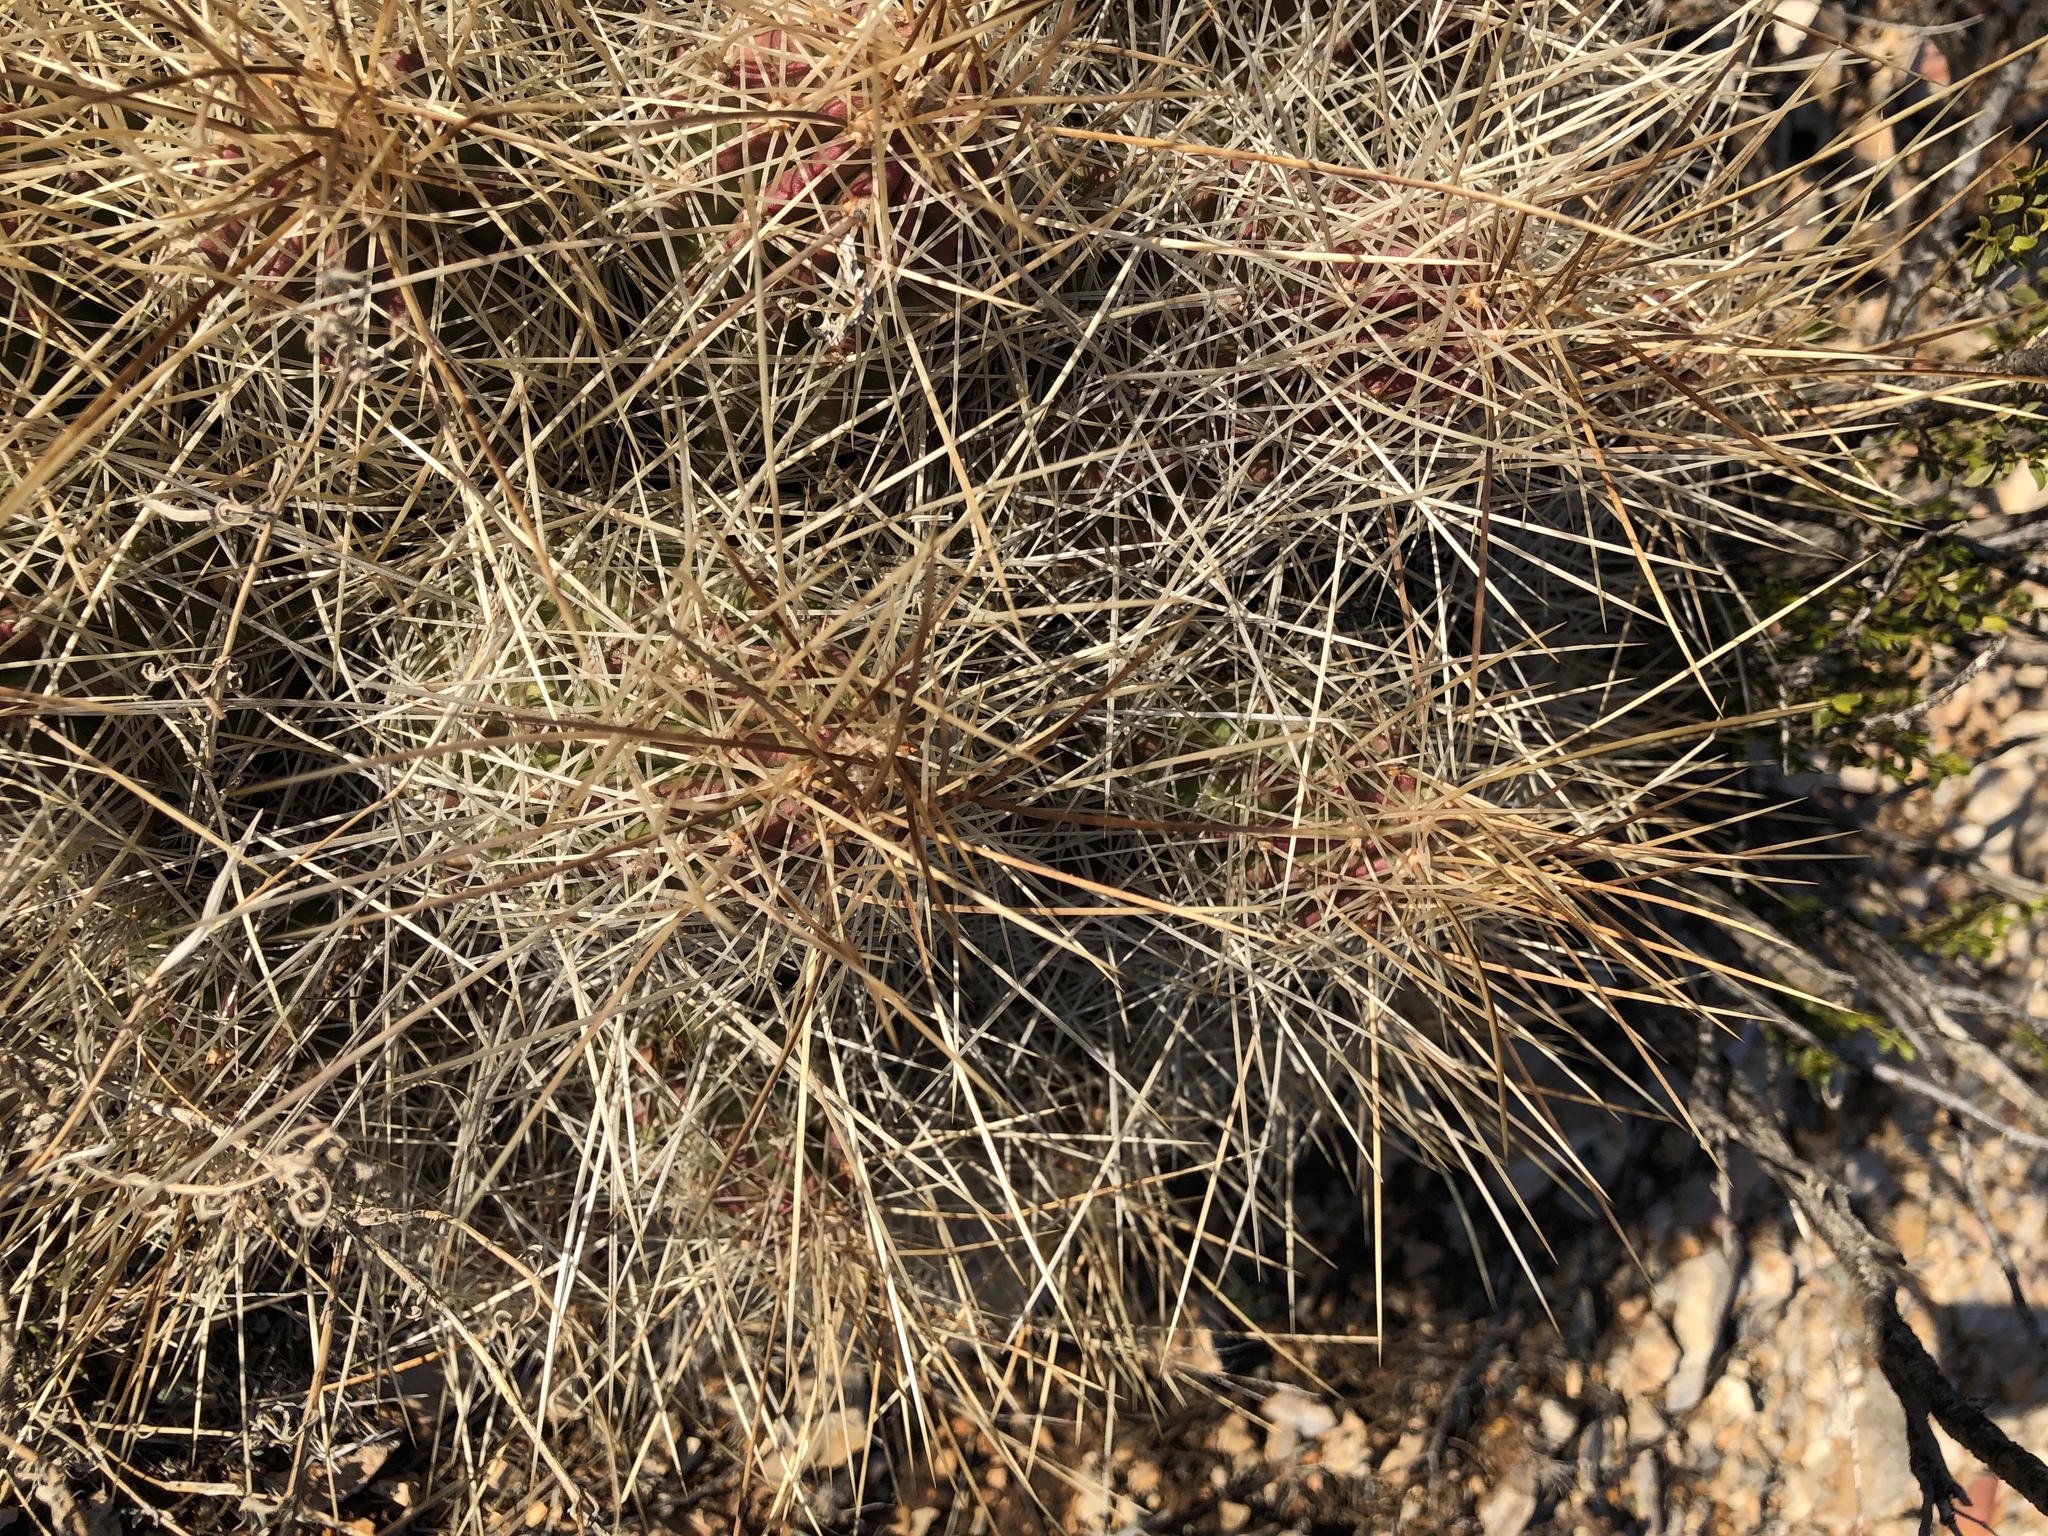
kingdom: Plantae
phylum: Tracheophyta
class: Magnoliopsida
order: Caryophyllales
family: Cactaceae
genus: Echinocereus
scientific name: Echinocereus stramineus
